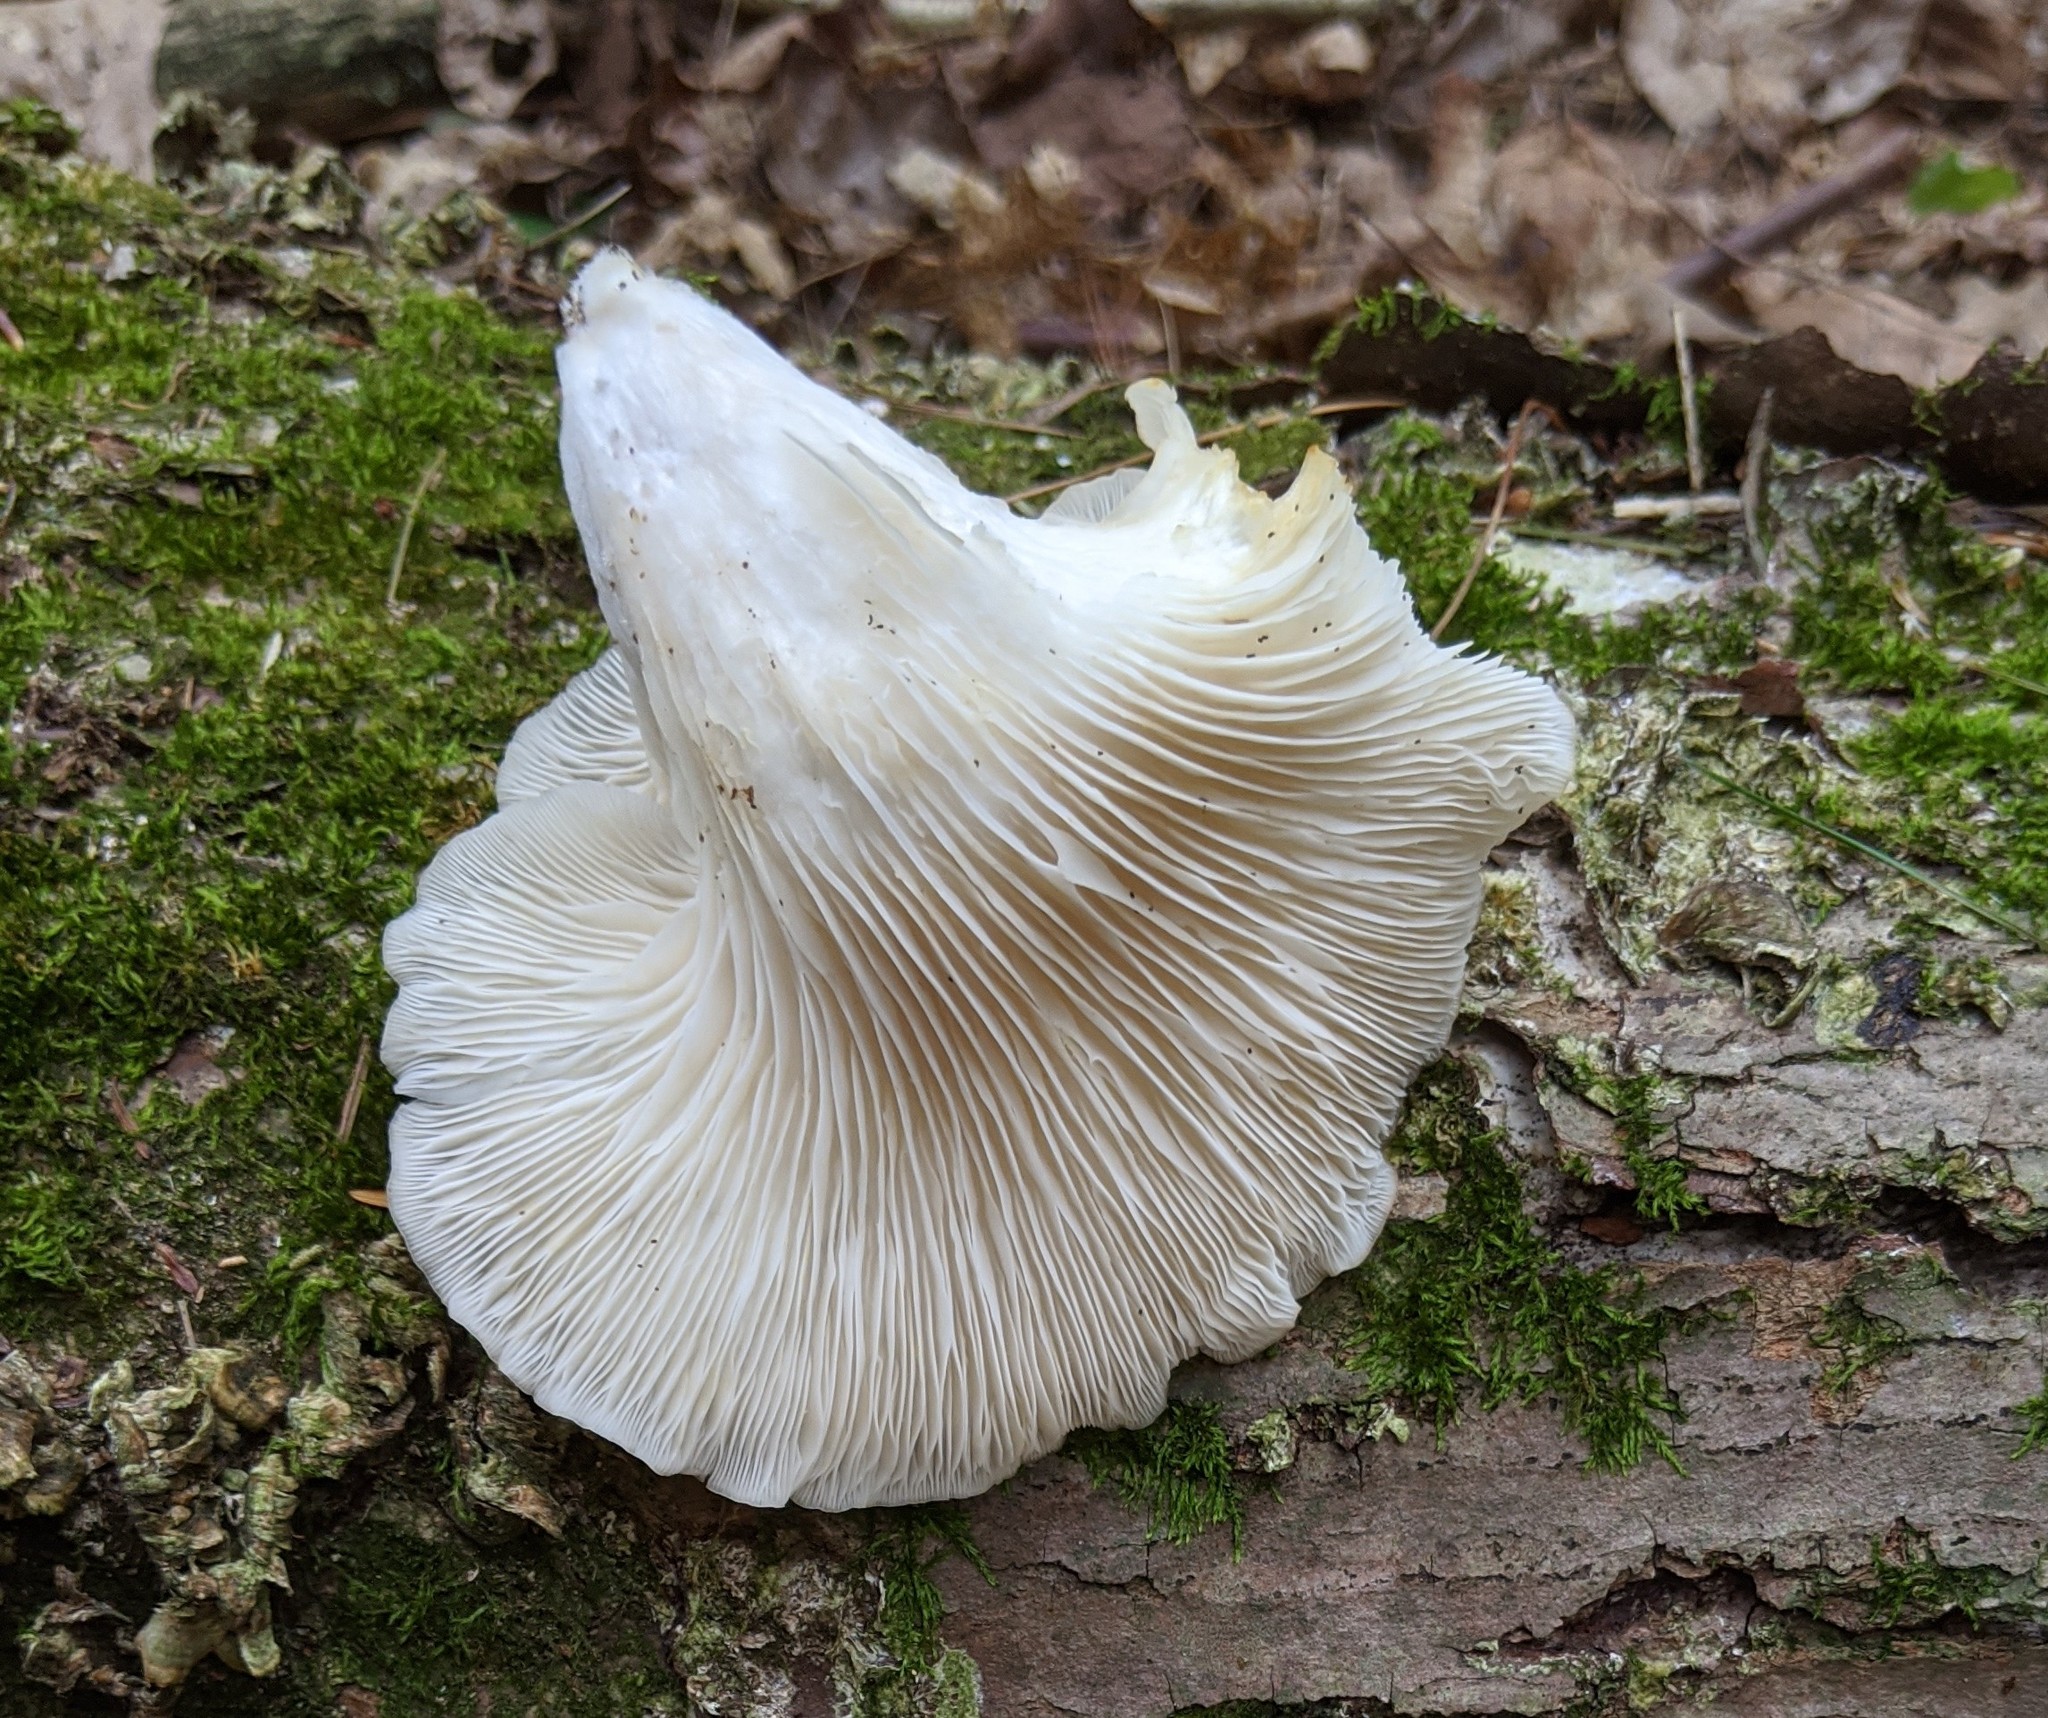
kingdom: Fungi
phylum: Basidiomycota
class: Agaricomycetes
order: Agaricales
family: Pleurotaceae
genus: Pleurotus
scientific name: Pleurotus pulmonarius
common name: Pale oyster
